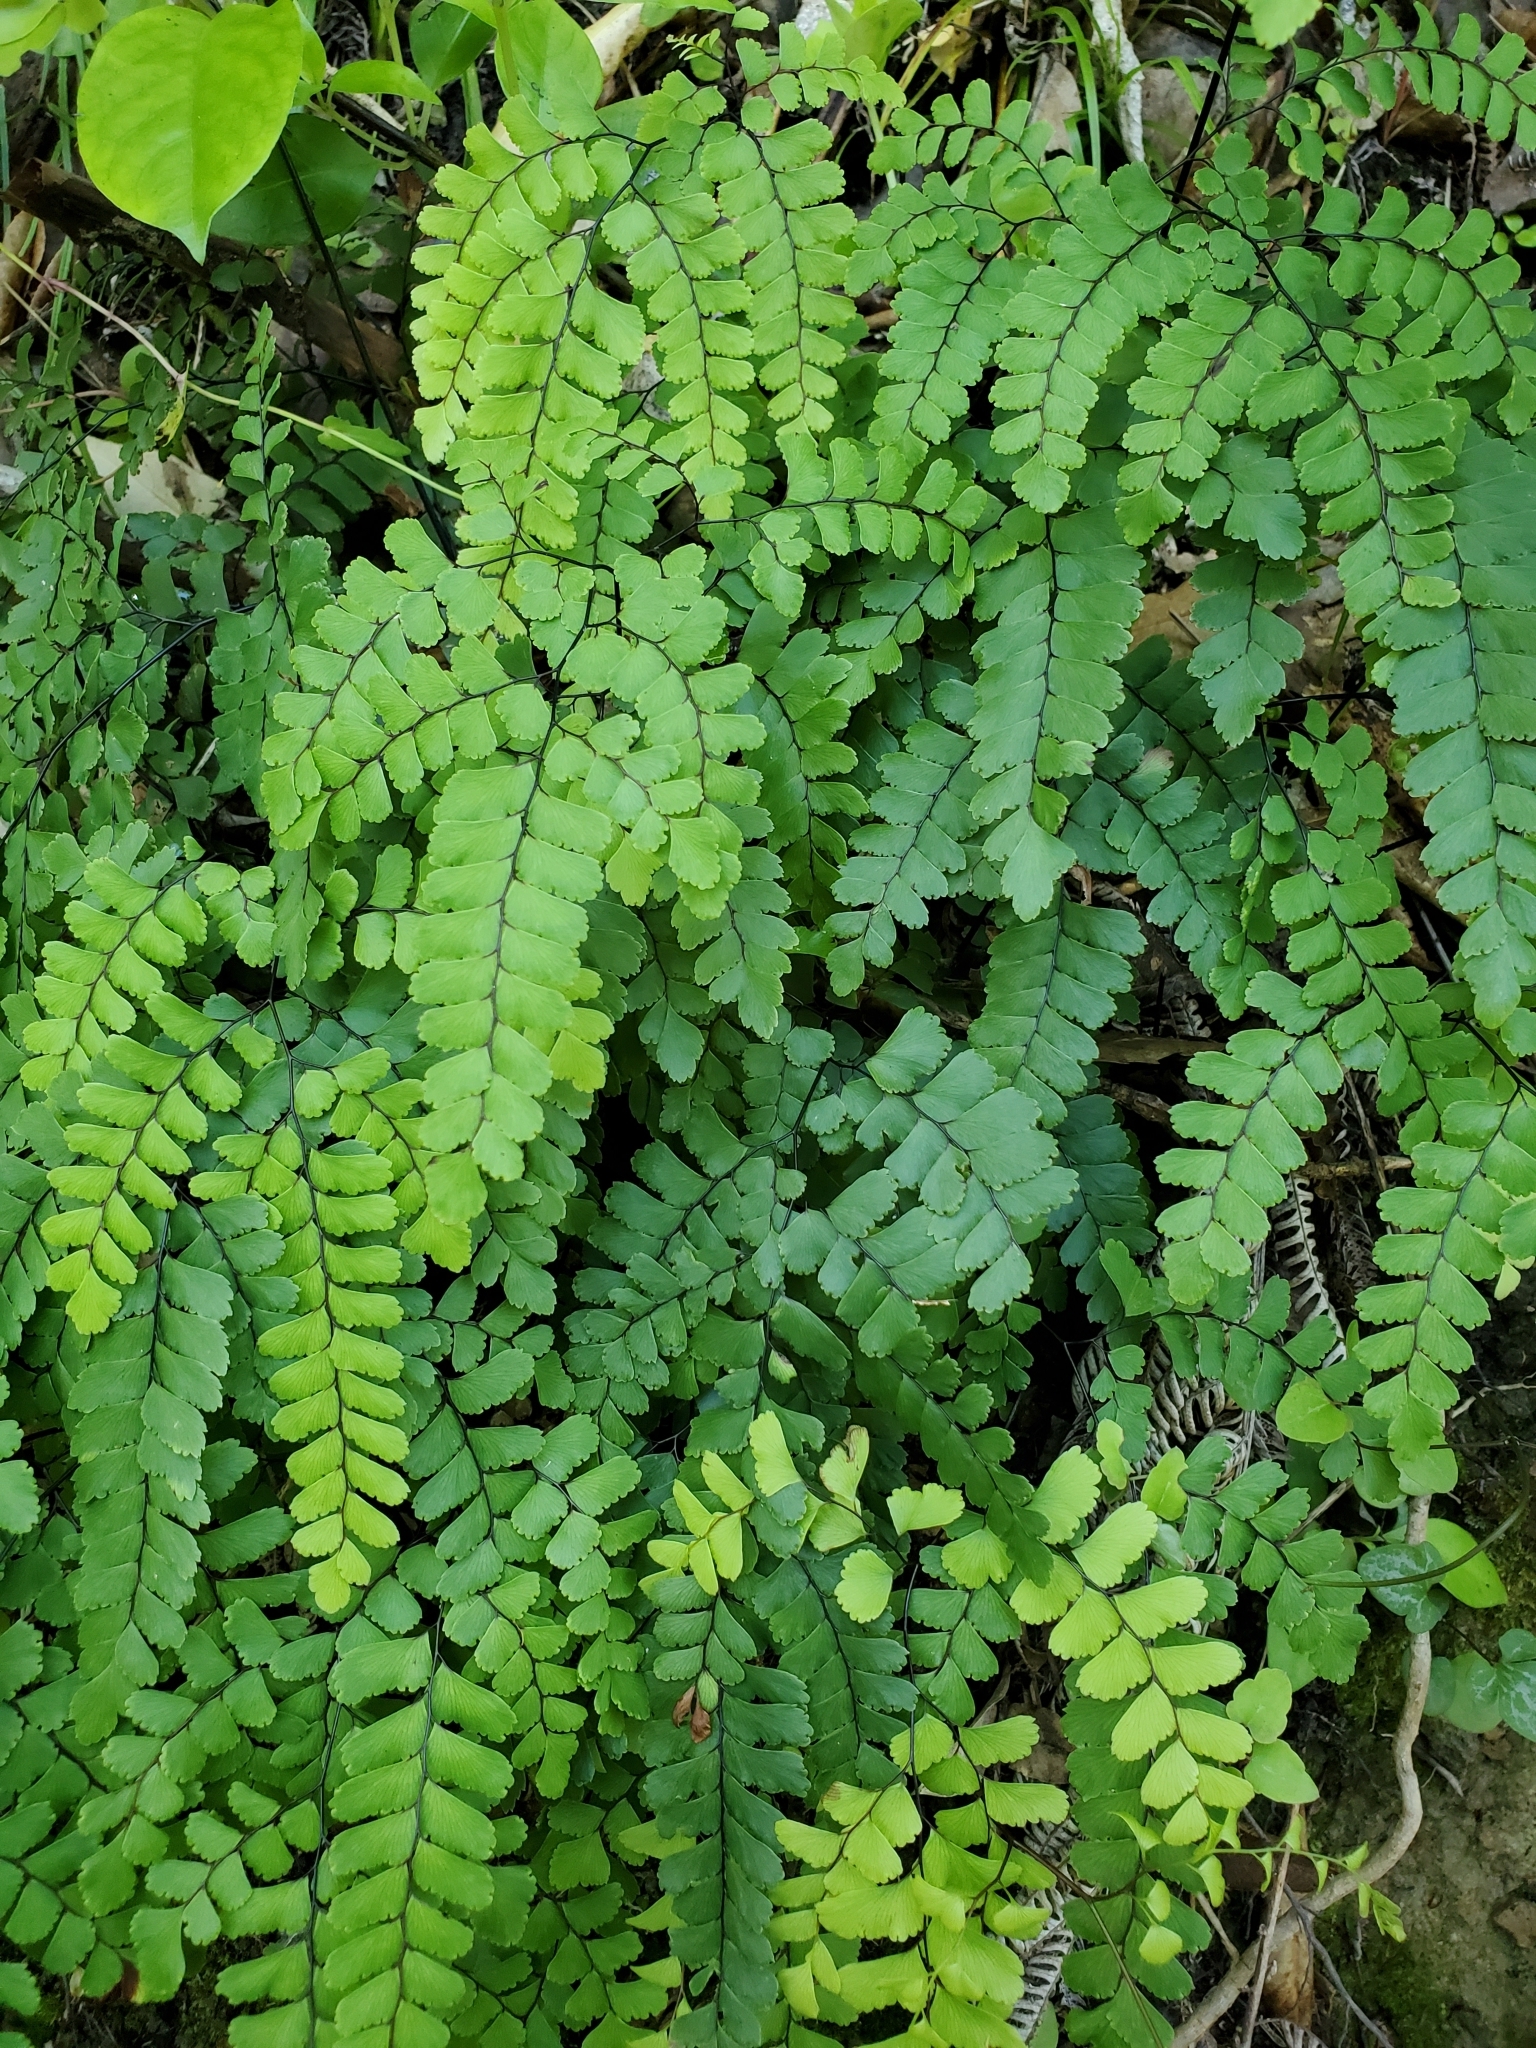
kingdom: Plantae
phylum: Tracheophyta
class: Polypodiopsida
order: Polypodiales
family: Pteridaceae
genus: Adiantum
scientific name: Adiantum cunninghamii
